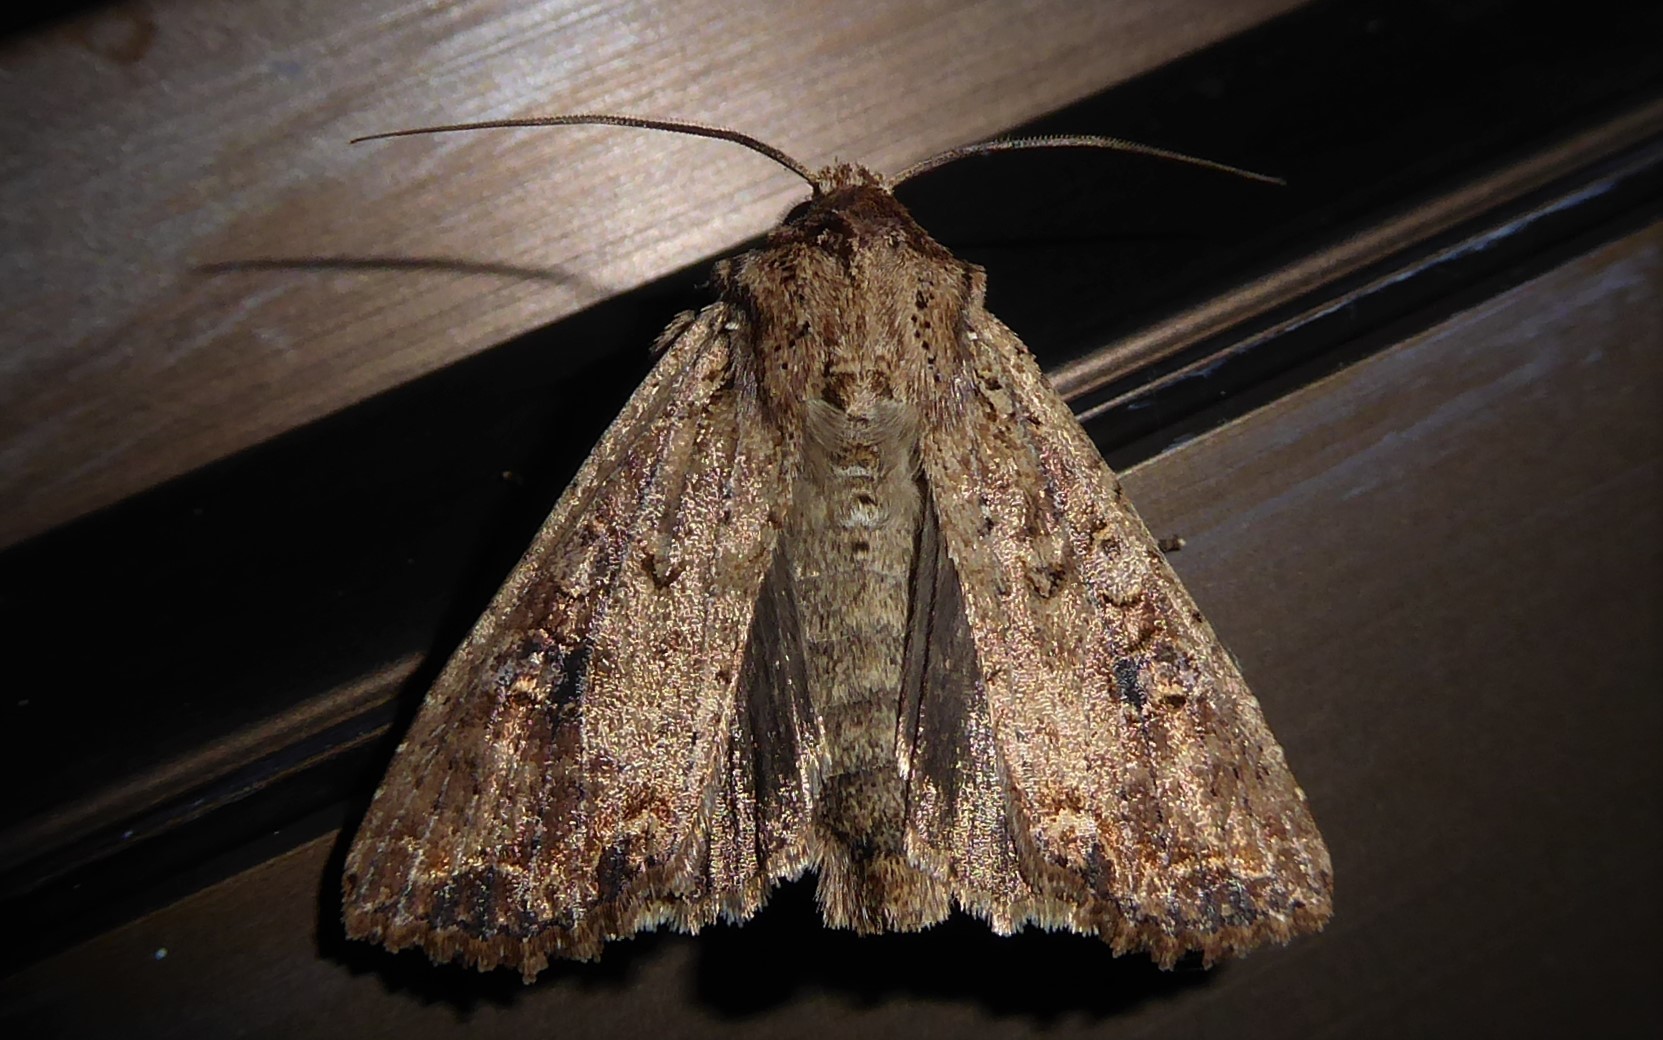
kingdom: Animalia
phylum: Arthropoda
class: Insecta
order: Lepidoptera
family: Noctuidae
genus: Ichneutica
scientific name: Ichneutica morosa
